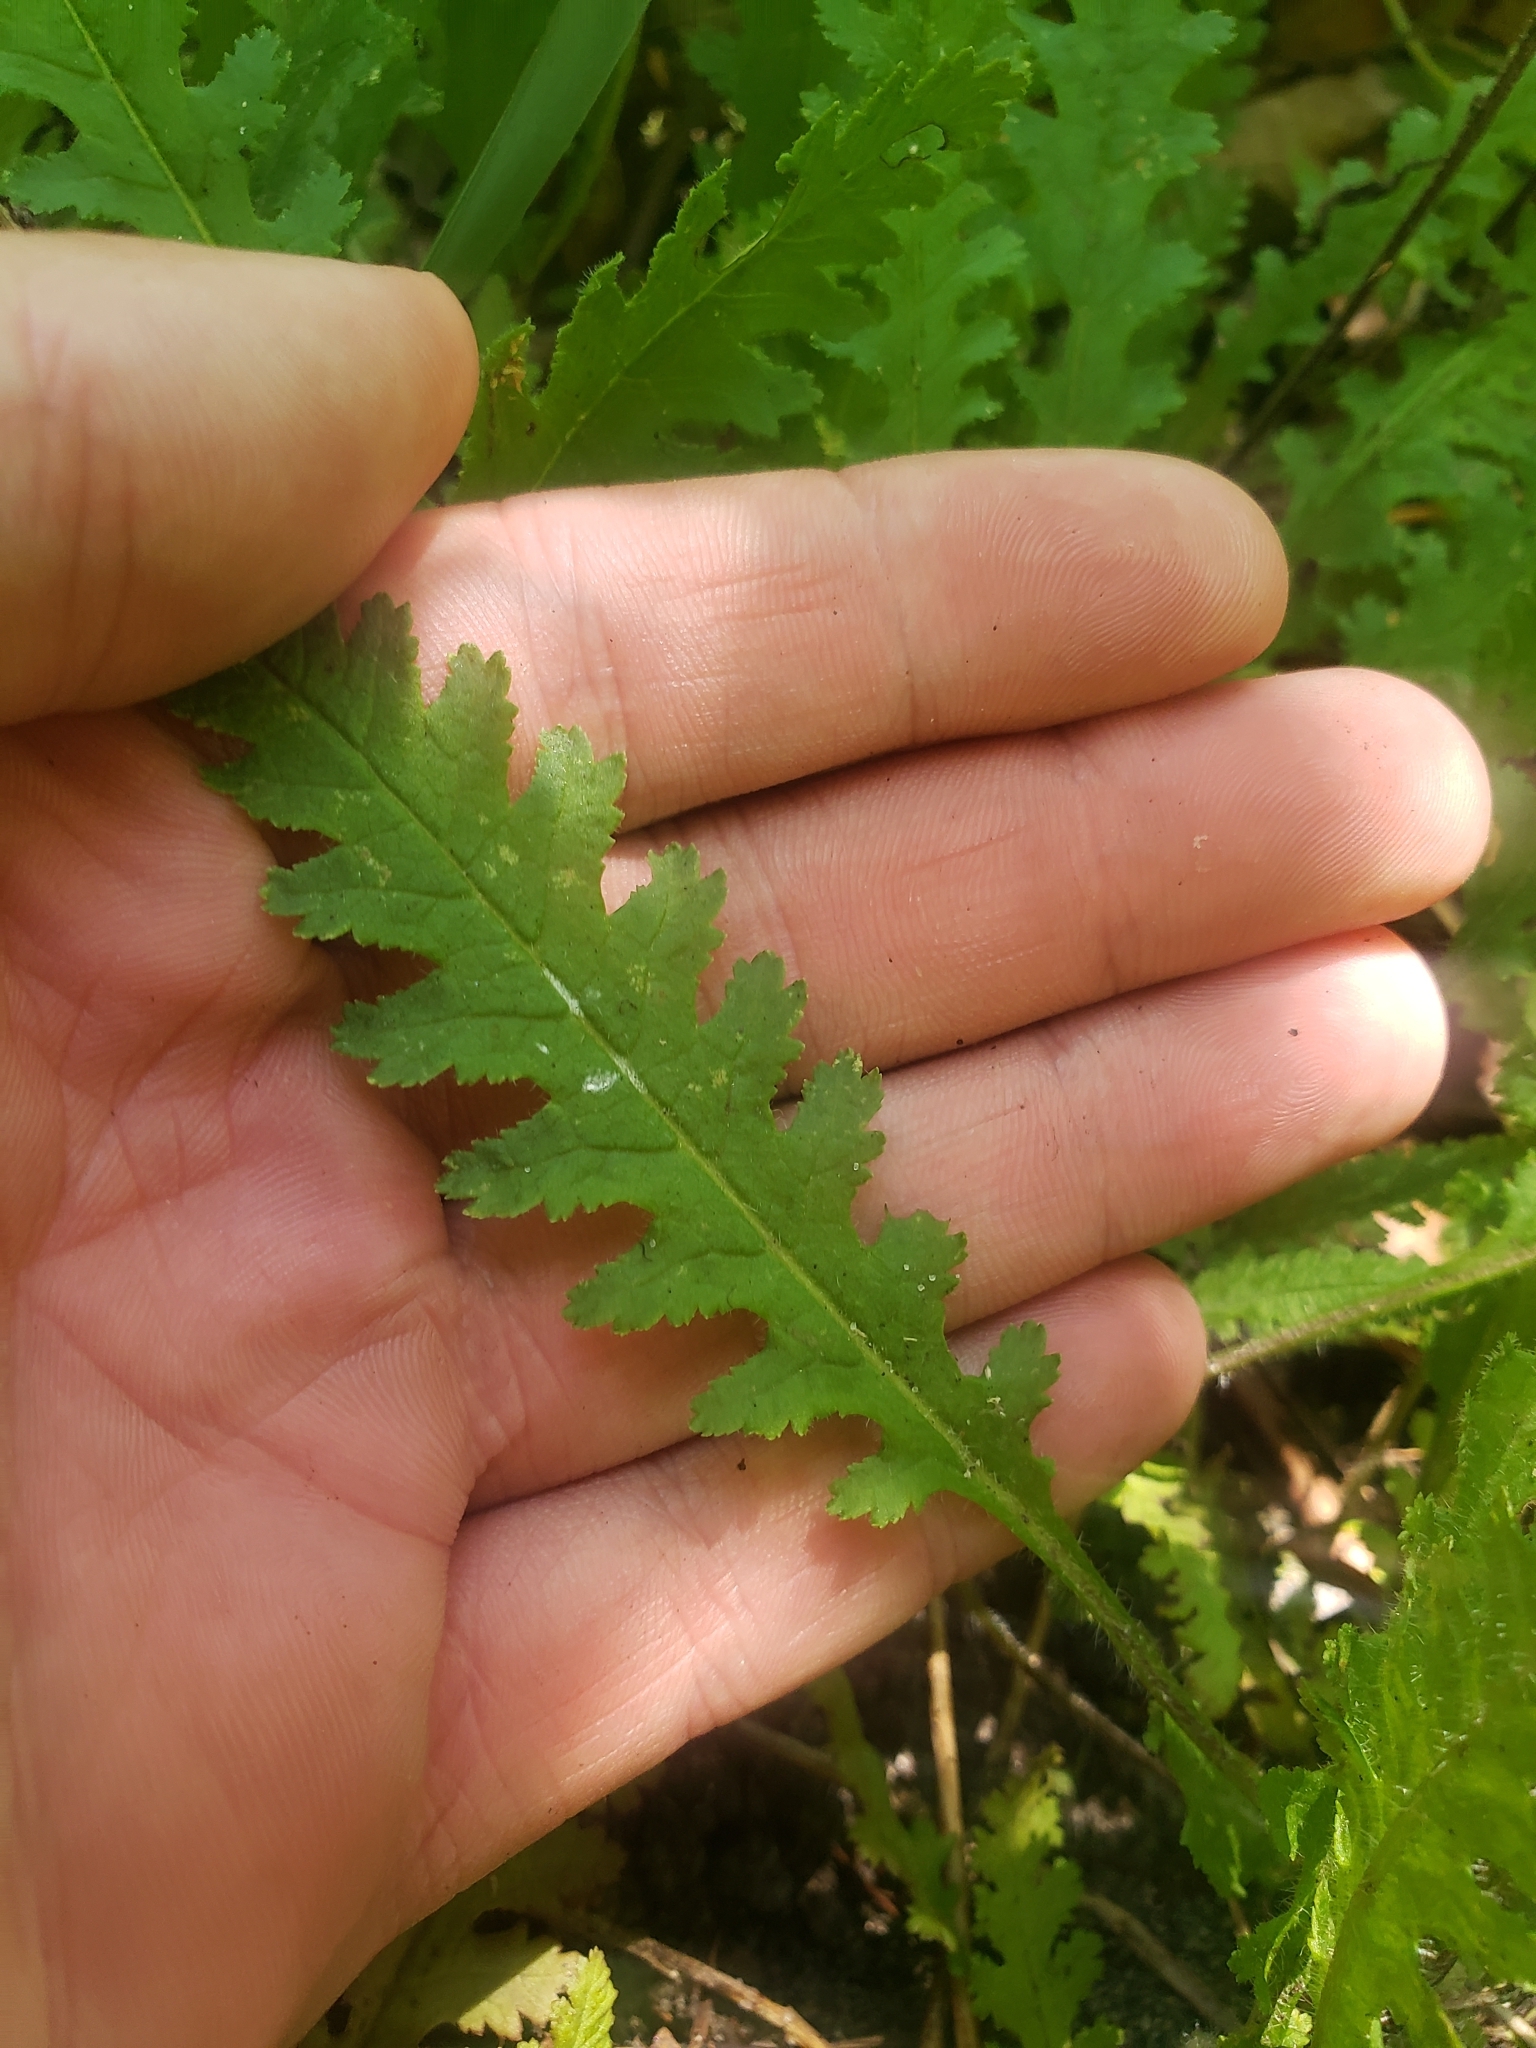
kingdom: Plantae
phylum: Tracheophyta
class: Magnoliopsida
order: Lamiales
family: Orobanchaceae
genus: Pedicularis
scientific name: Pedicularis canadensis
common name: Early lousewort
